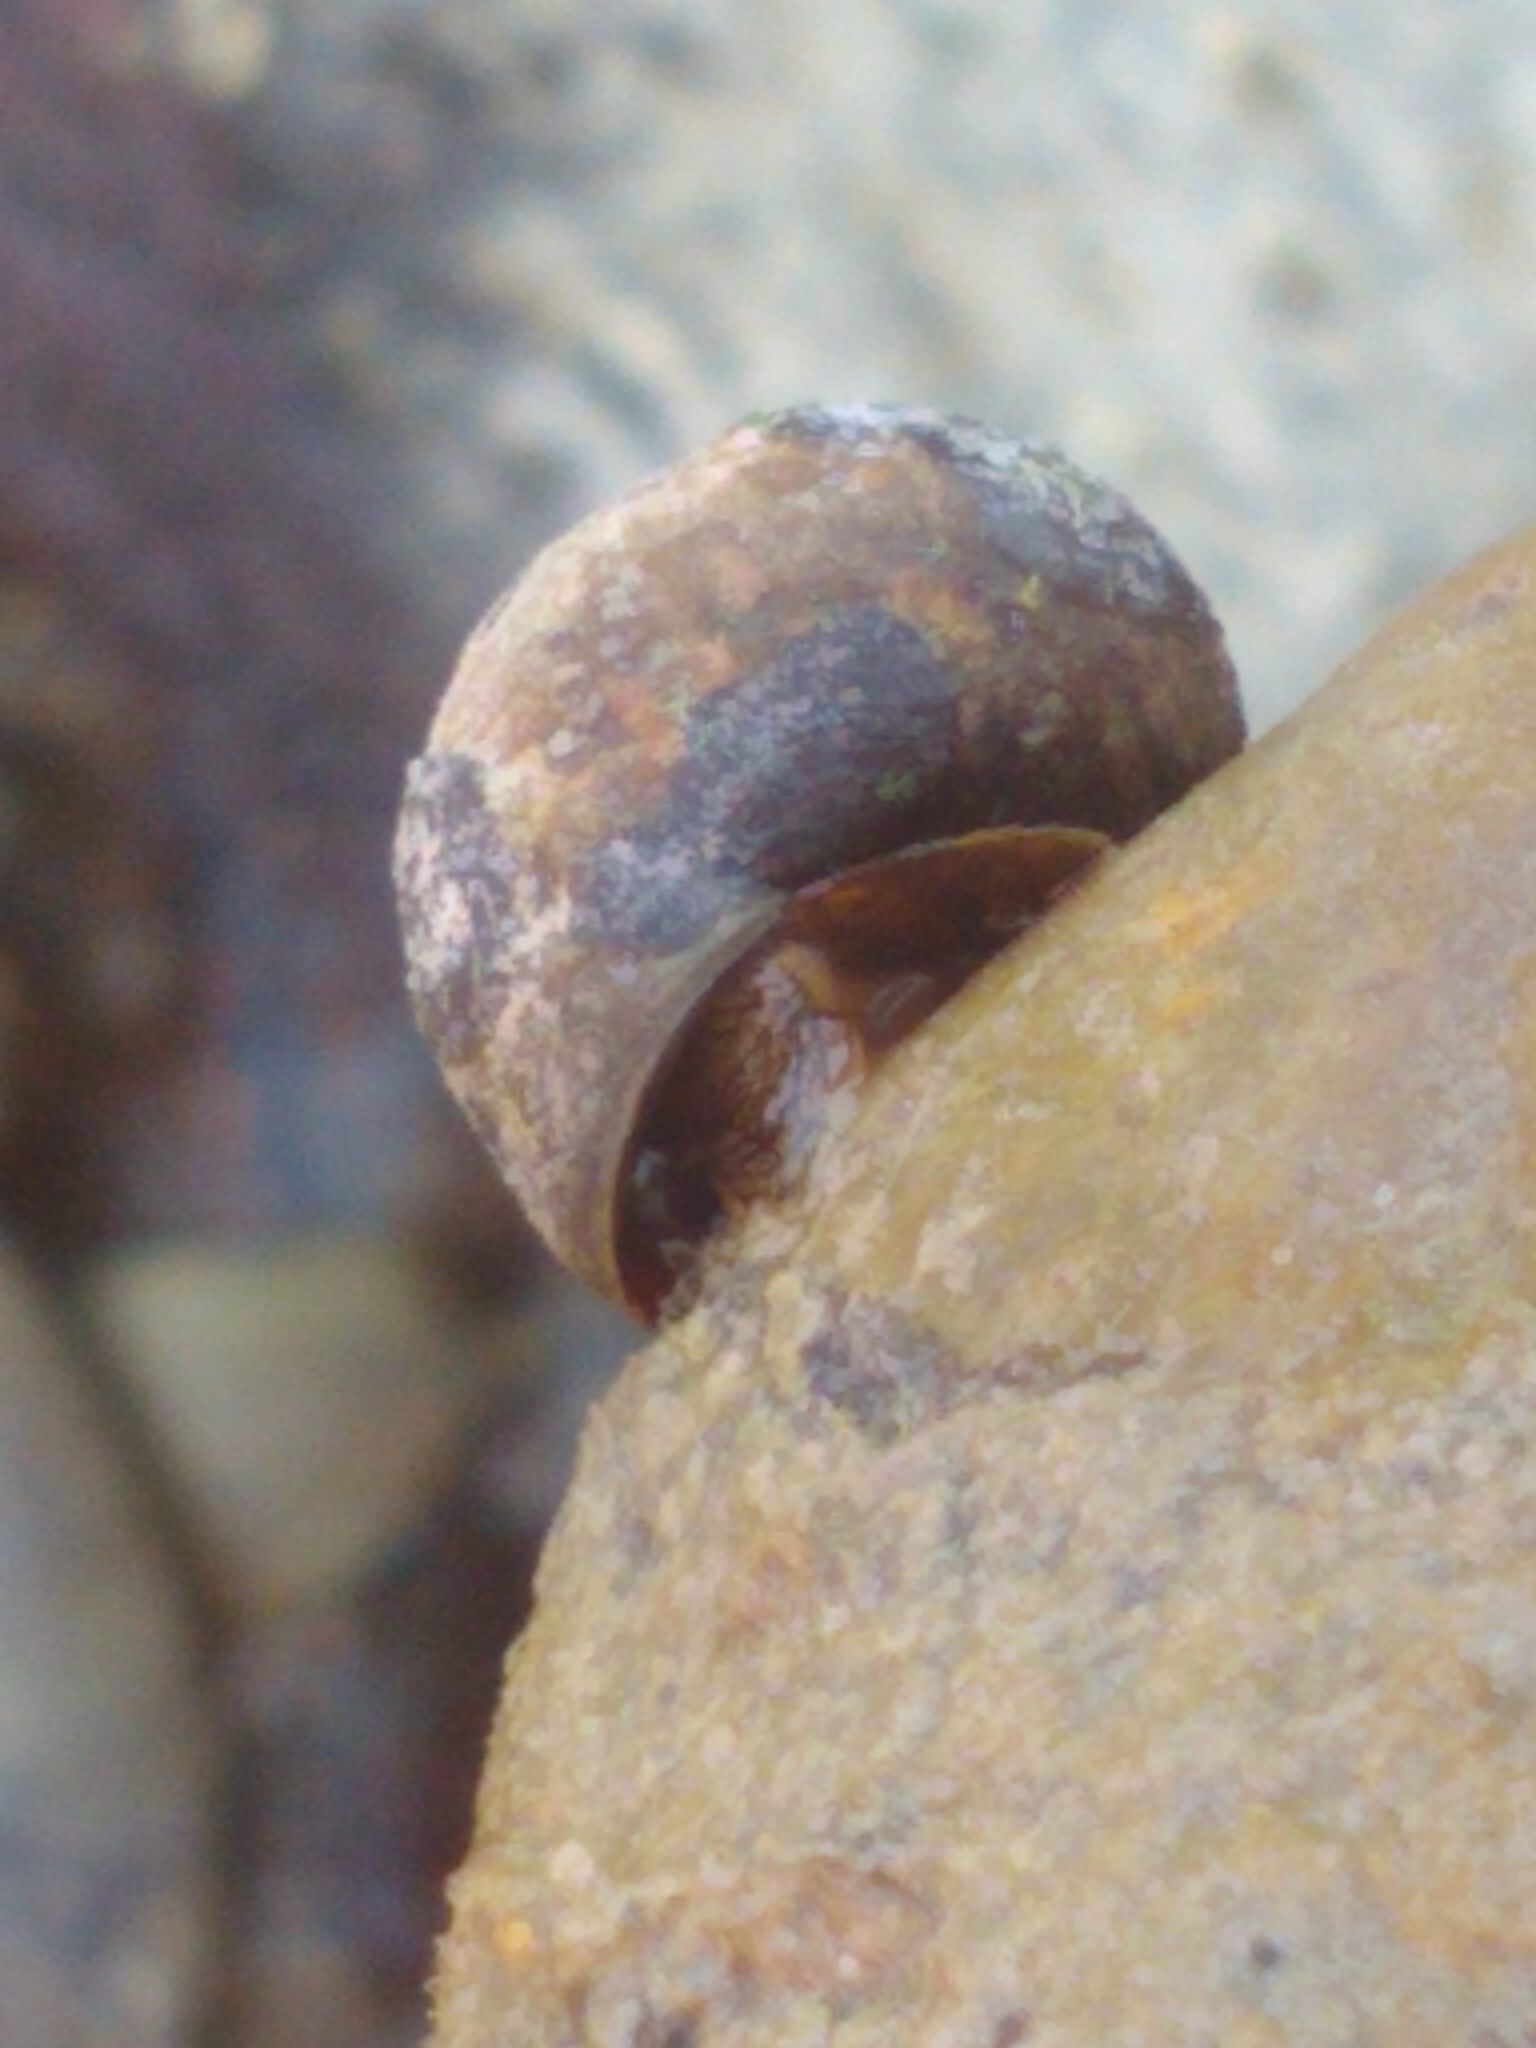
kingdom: Animalia
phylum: Mollusca
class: Gastropoda
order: Littorinimorpha
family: Littorinidae
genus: Littorina
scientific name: Littorina littorea
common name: Common periwinkle
